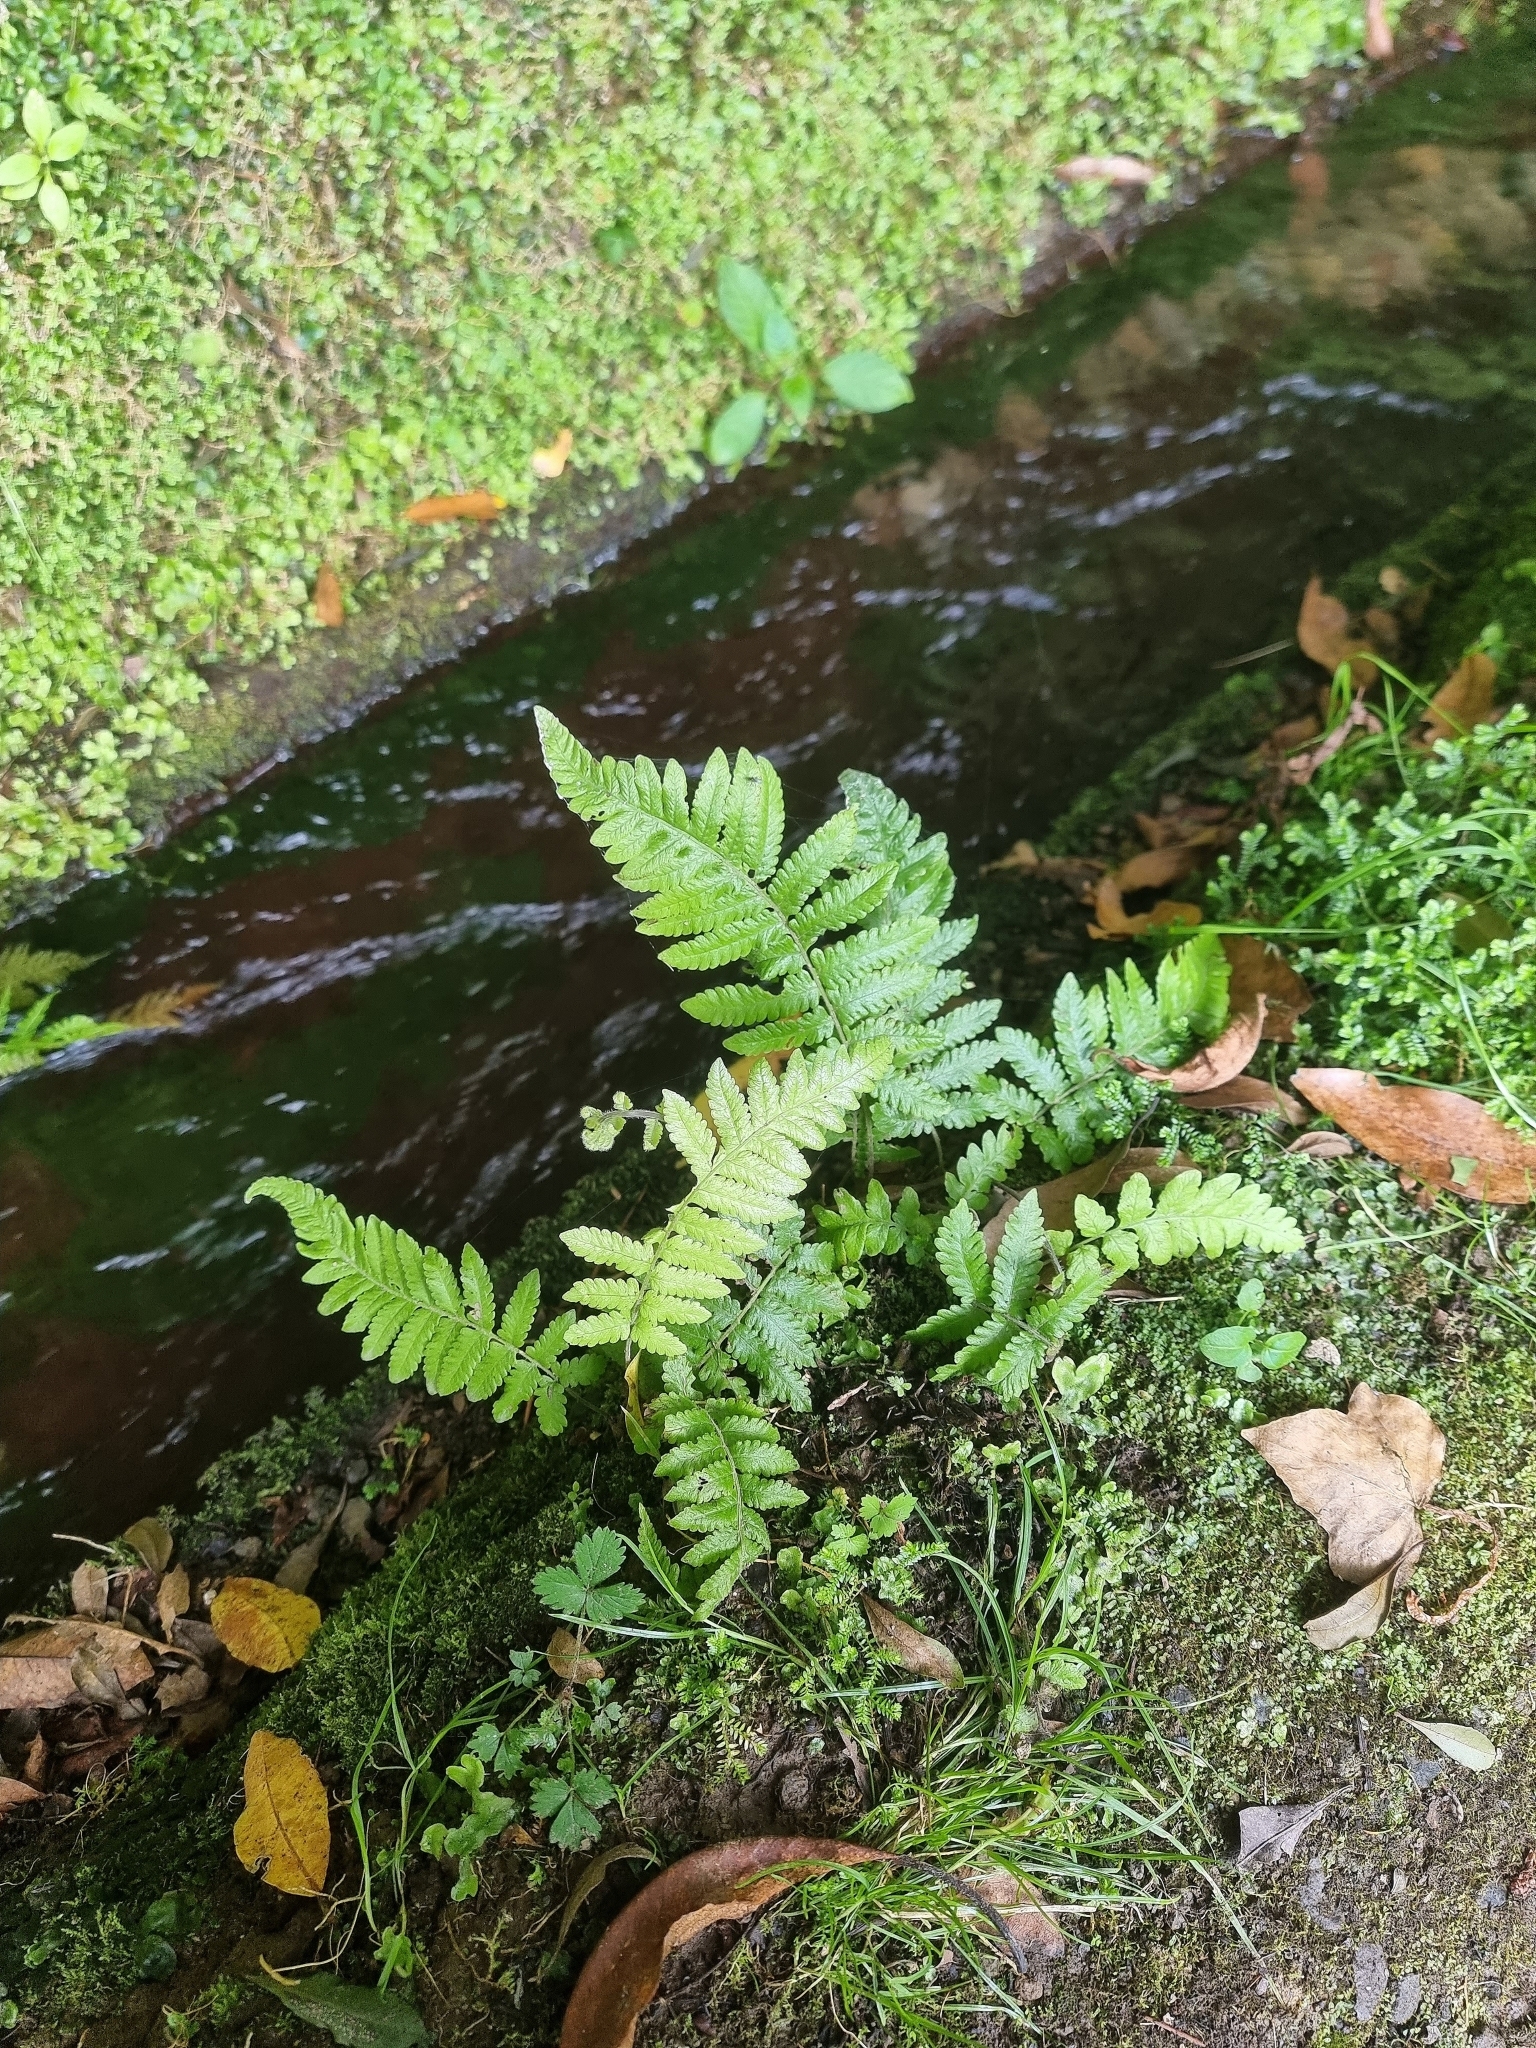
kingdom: Plantae
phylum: Tracheophyta
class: Polypodiopsida
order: Polypodiales
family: Thelypteridaceae
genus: Leptogramma
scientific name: Leptogramma pozoi
